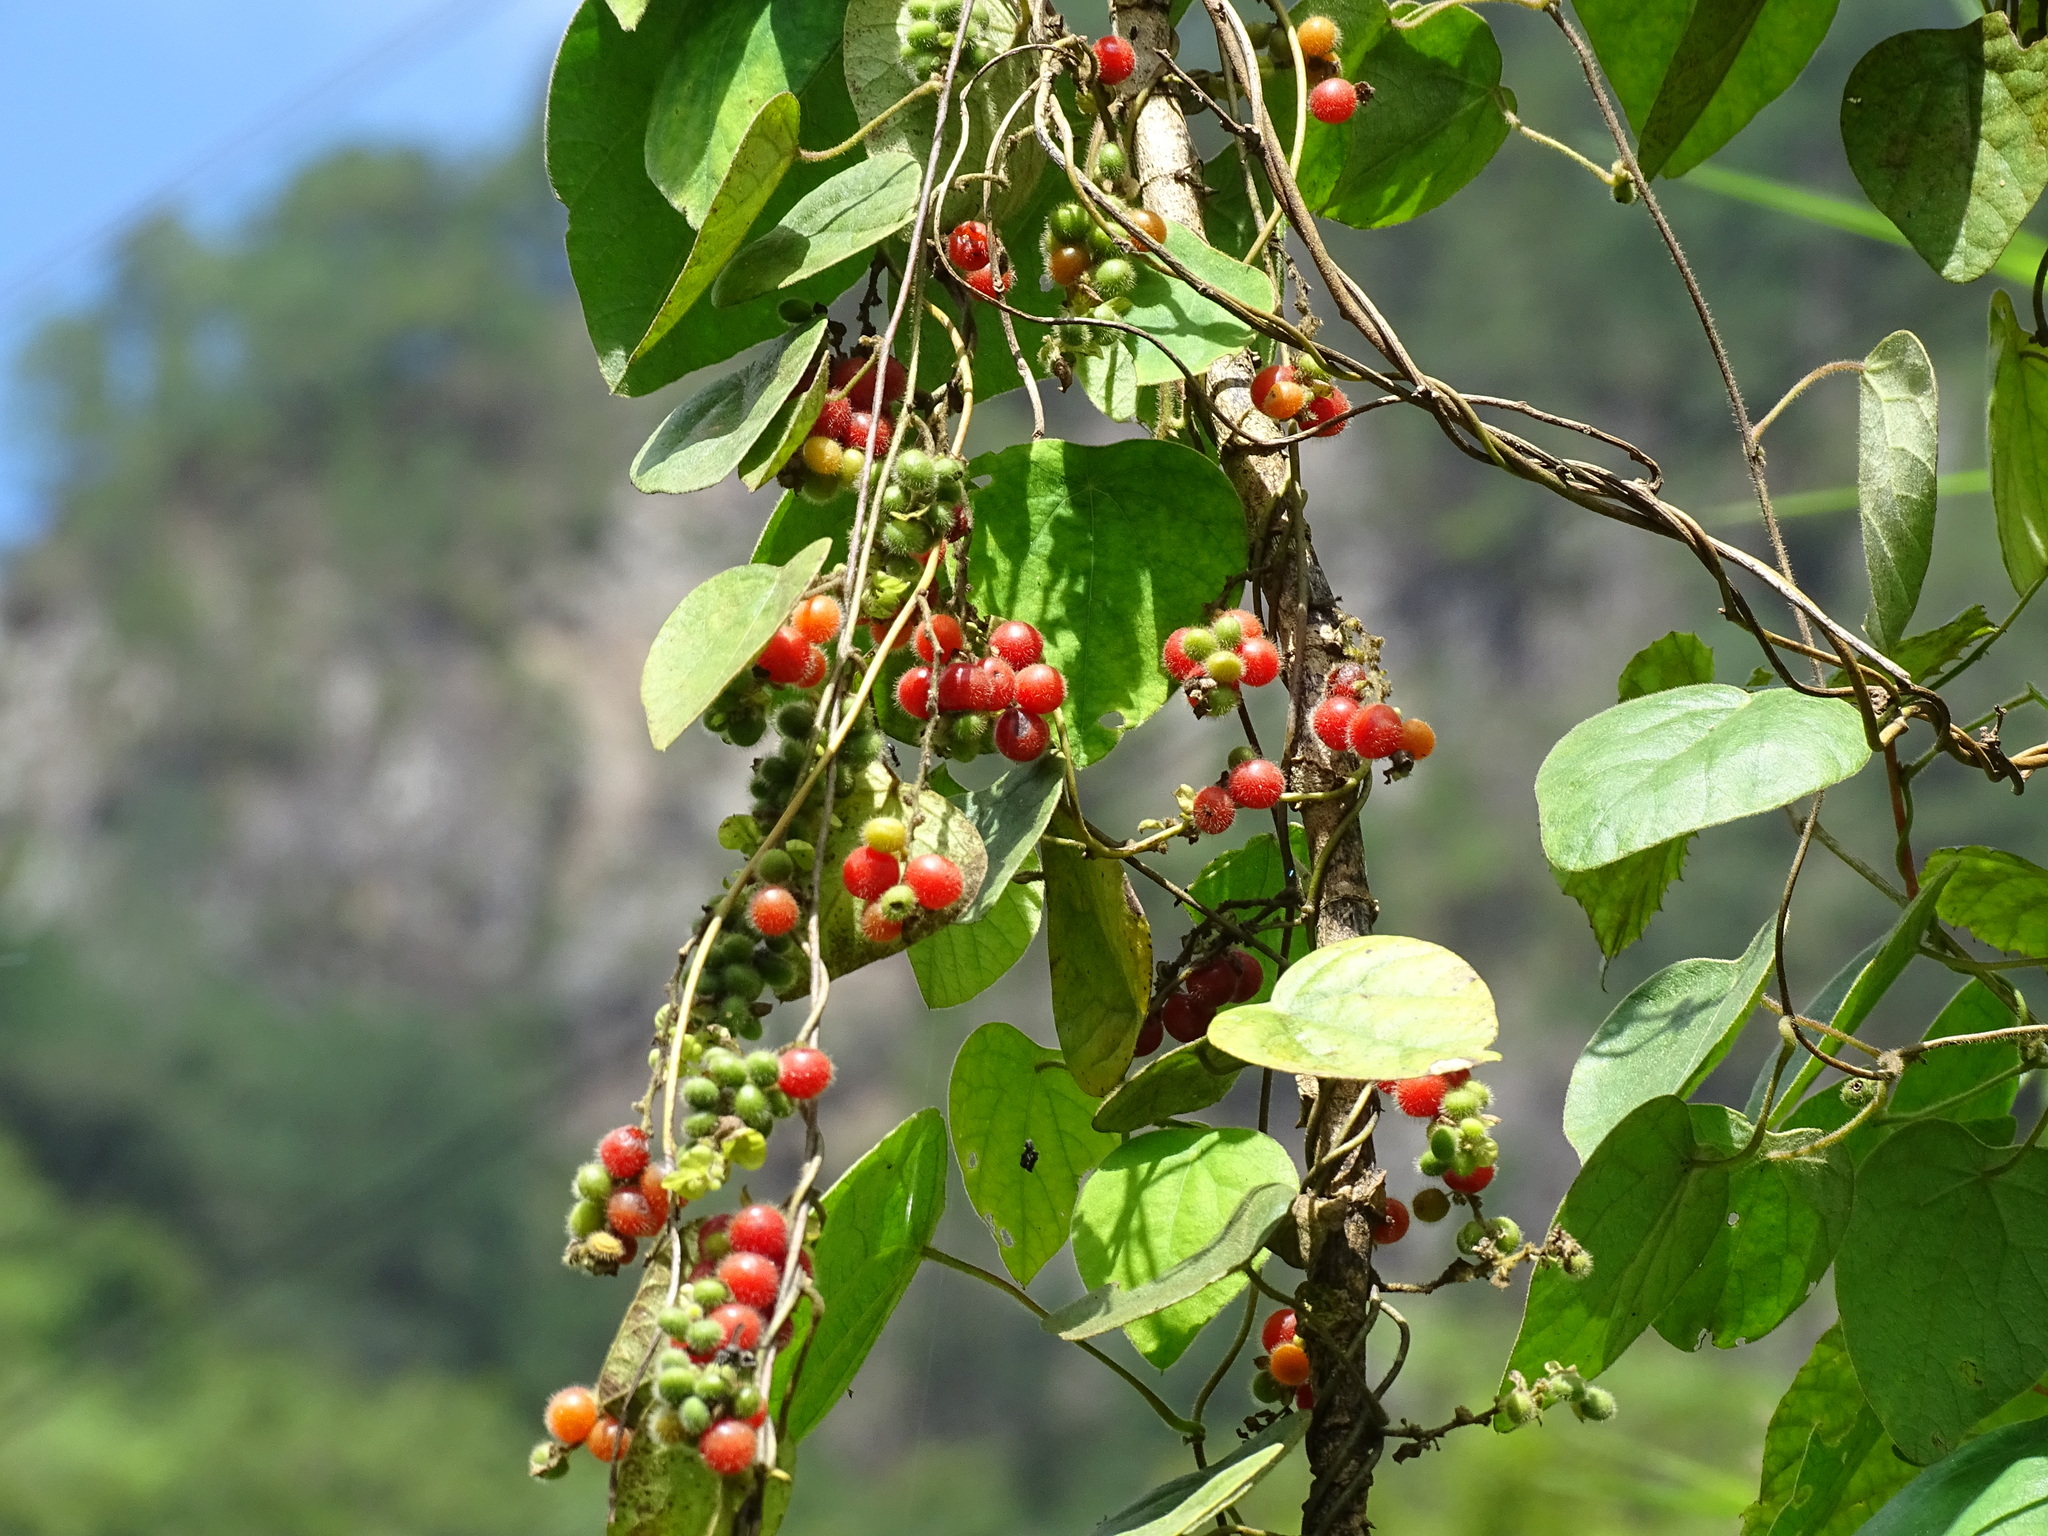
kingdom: Plantae
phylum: Tracheophyta
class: Magnoliopsida
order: Ranunculales
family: Menispermaceae
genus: Cissampelos
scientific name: Cissampelos pareira
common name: Velvetleaf
